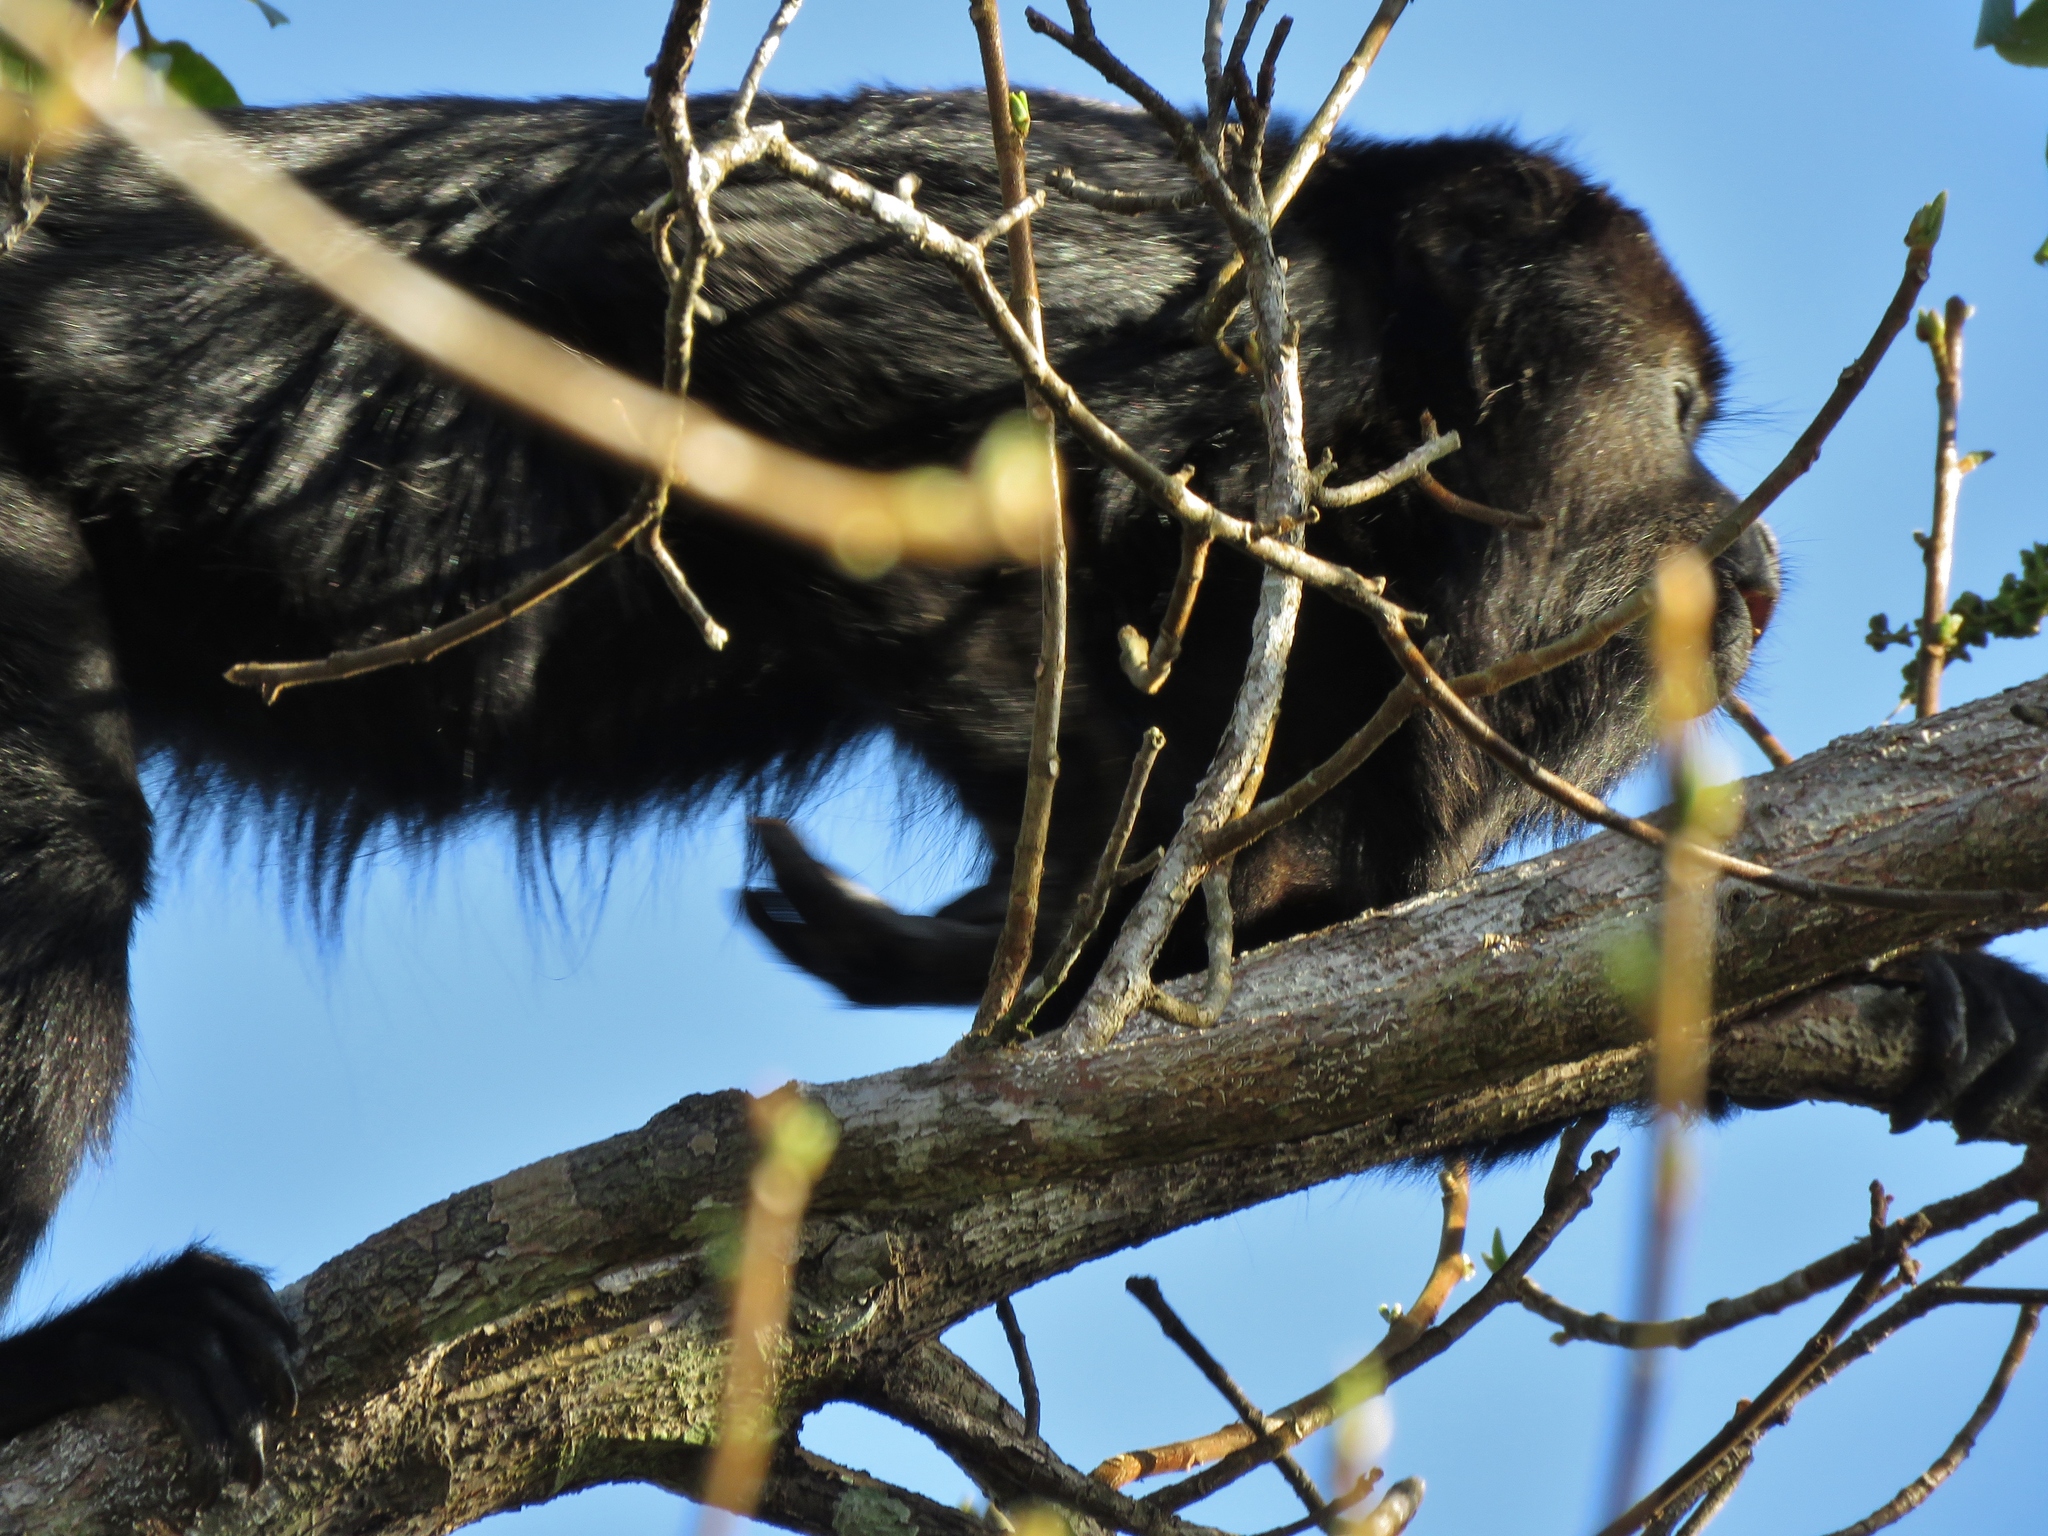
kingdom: Animalia
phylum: Chordata
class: Mammalia
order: Primates
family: Atelidae
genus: Alouatta
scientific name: Alouatta pigra
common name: Guatemalan black howler
